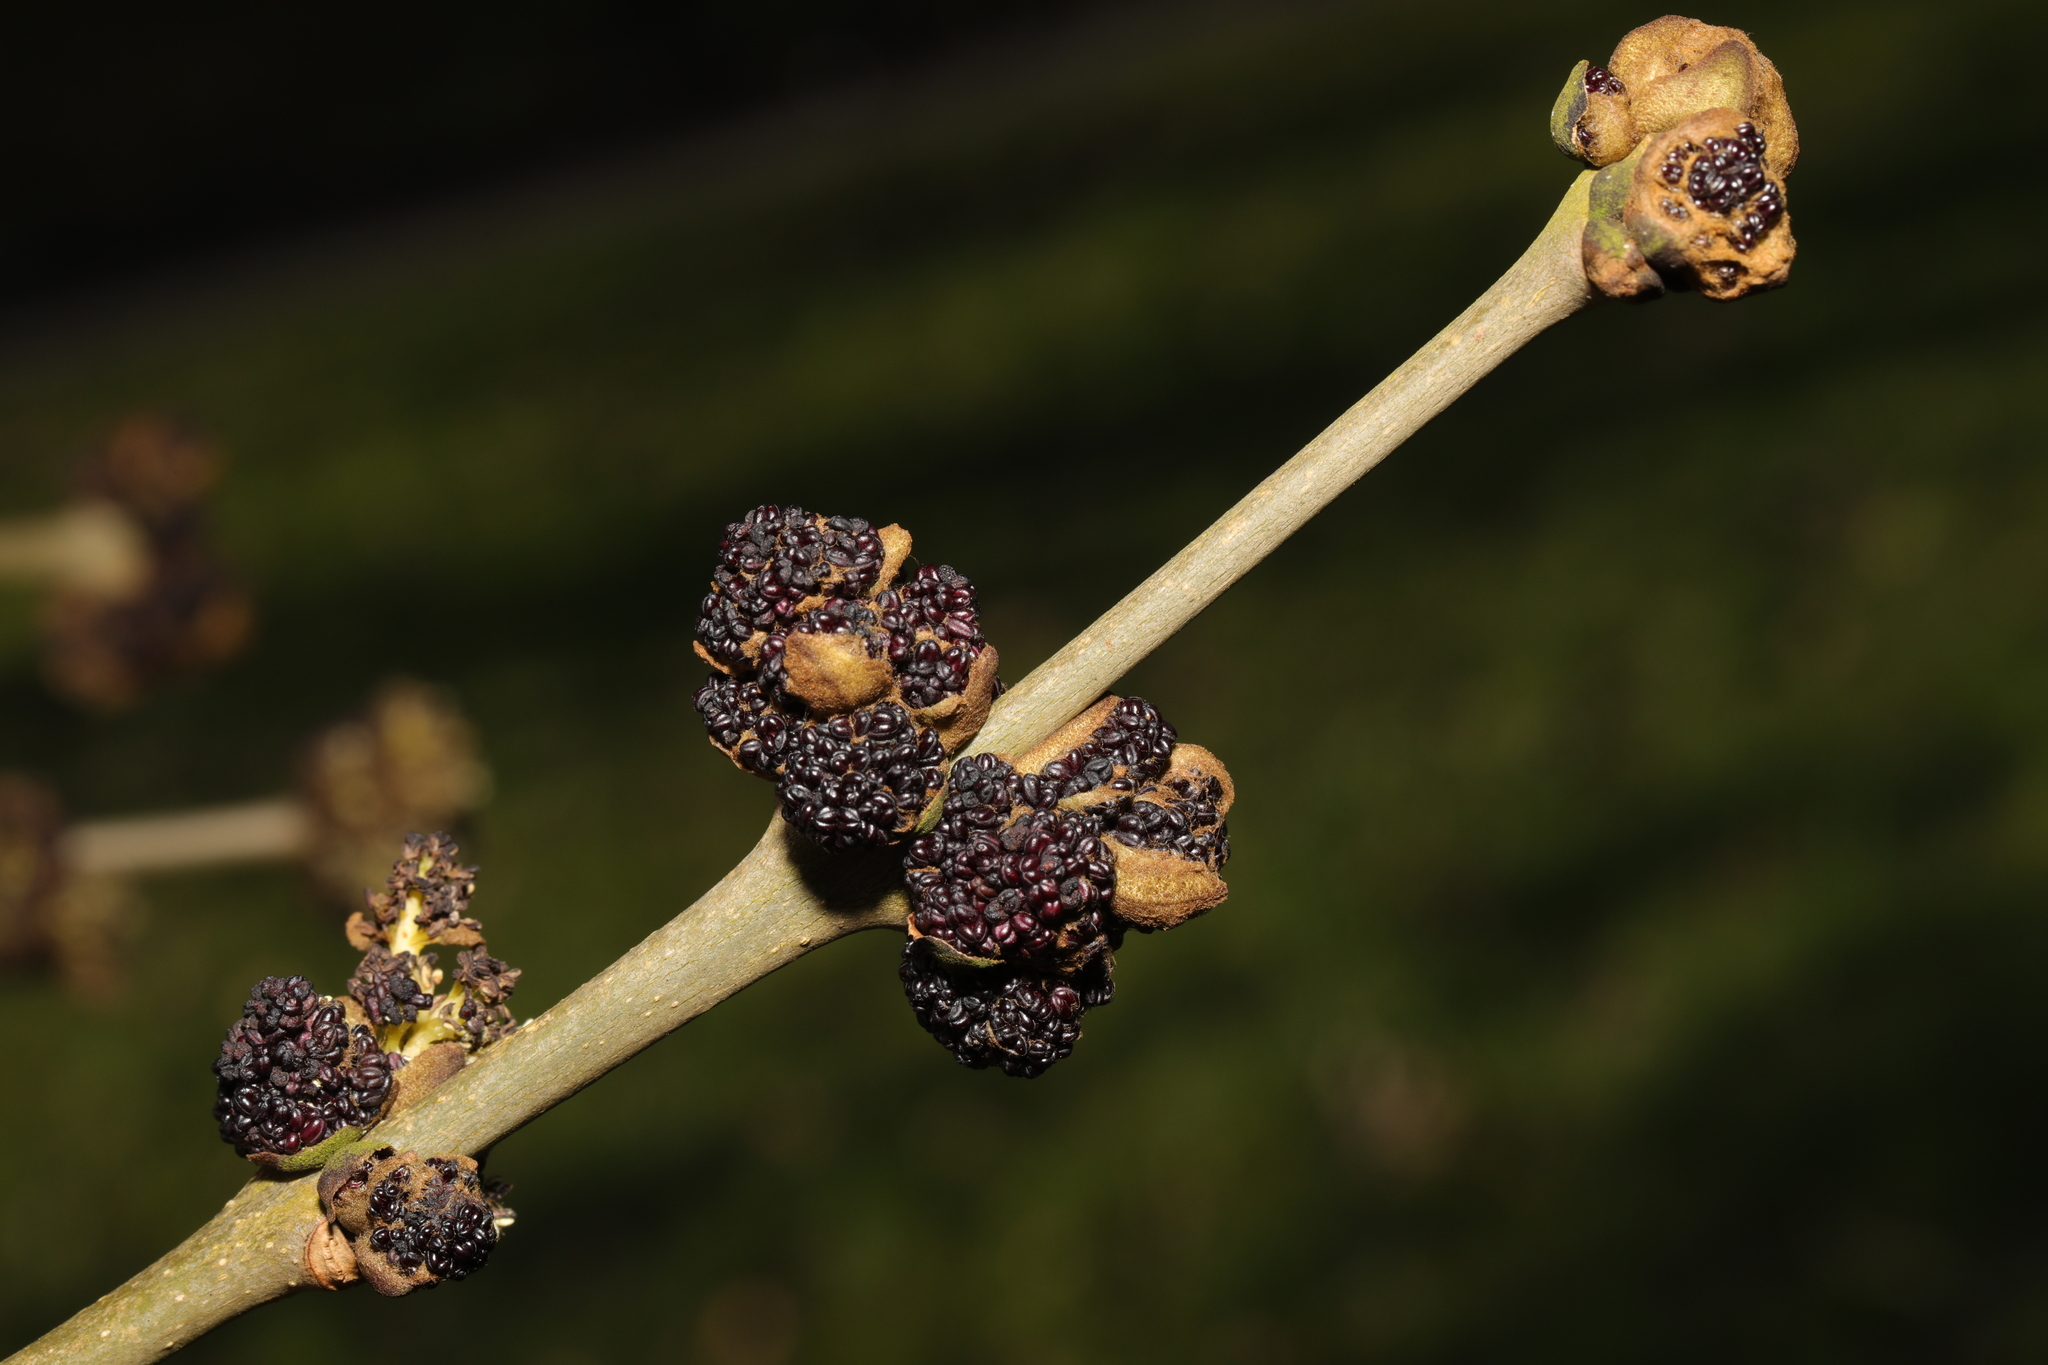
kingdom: Plantae
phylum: Tracheophyta
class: Magnoliopsida
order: Lamiales
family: Oleaceae
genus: Fraxinus
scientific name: Fraxinus excelsior
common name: European ash
